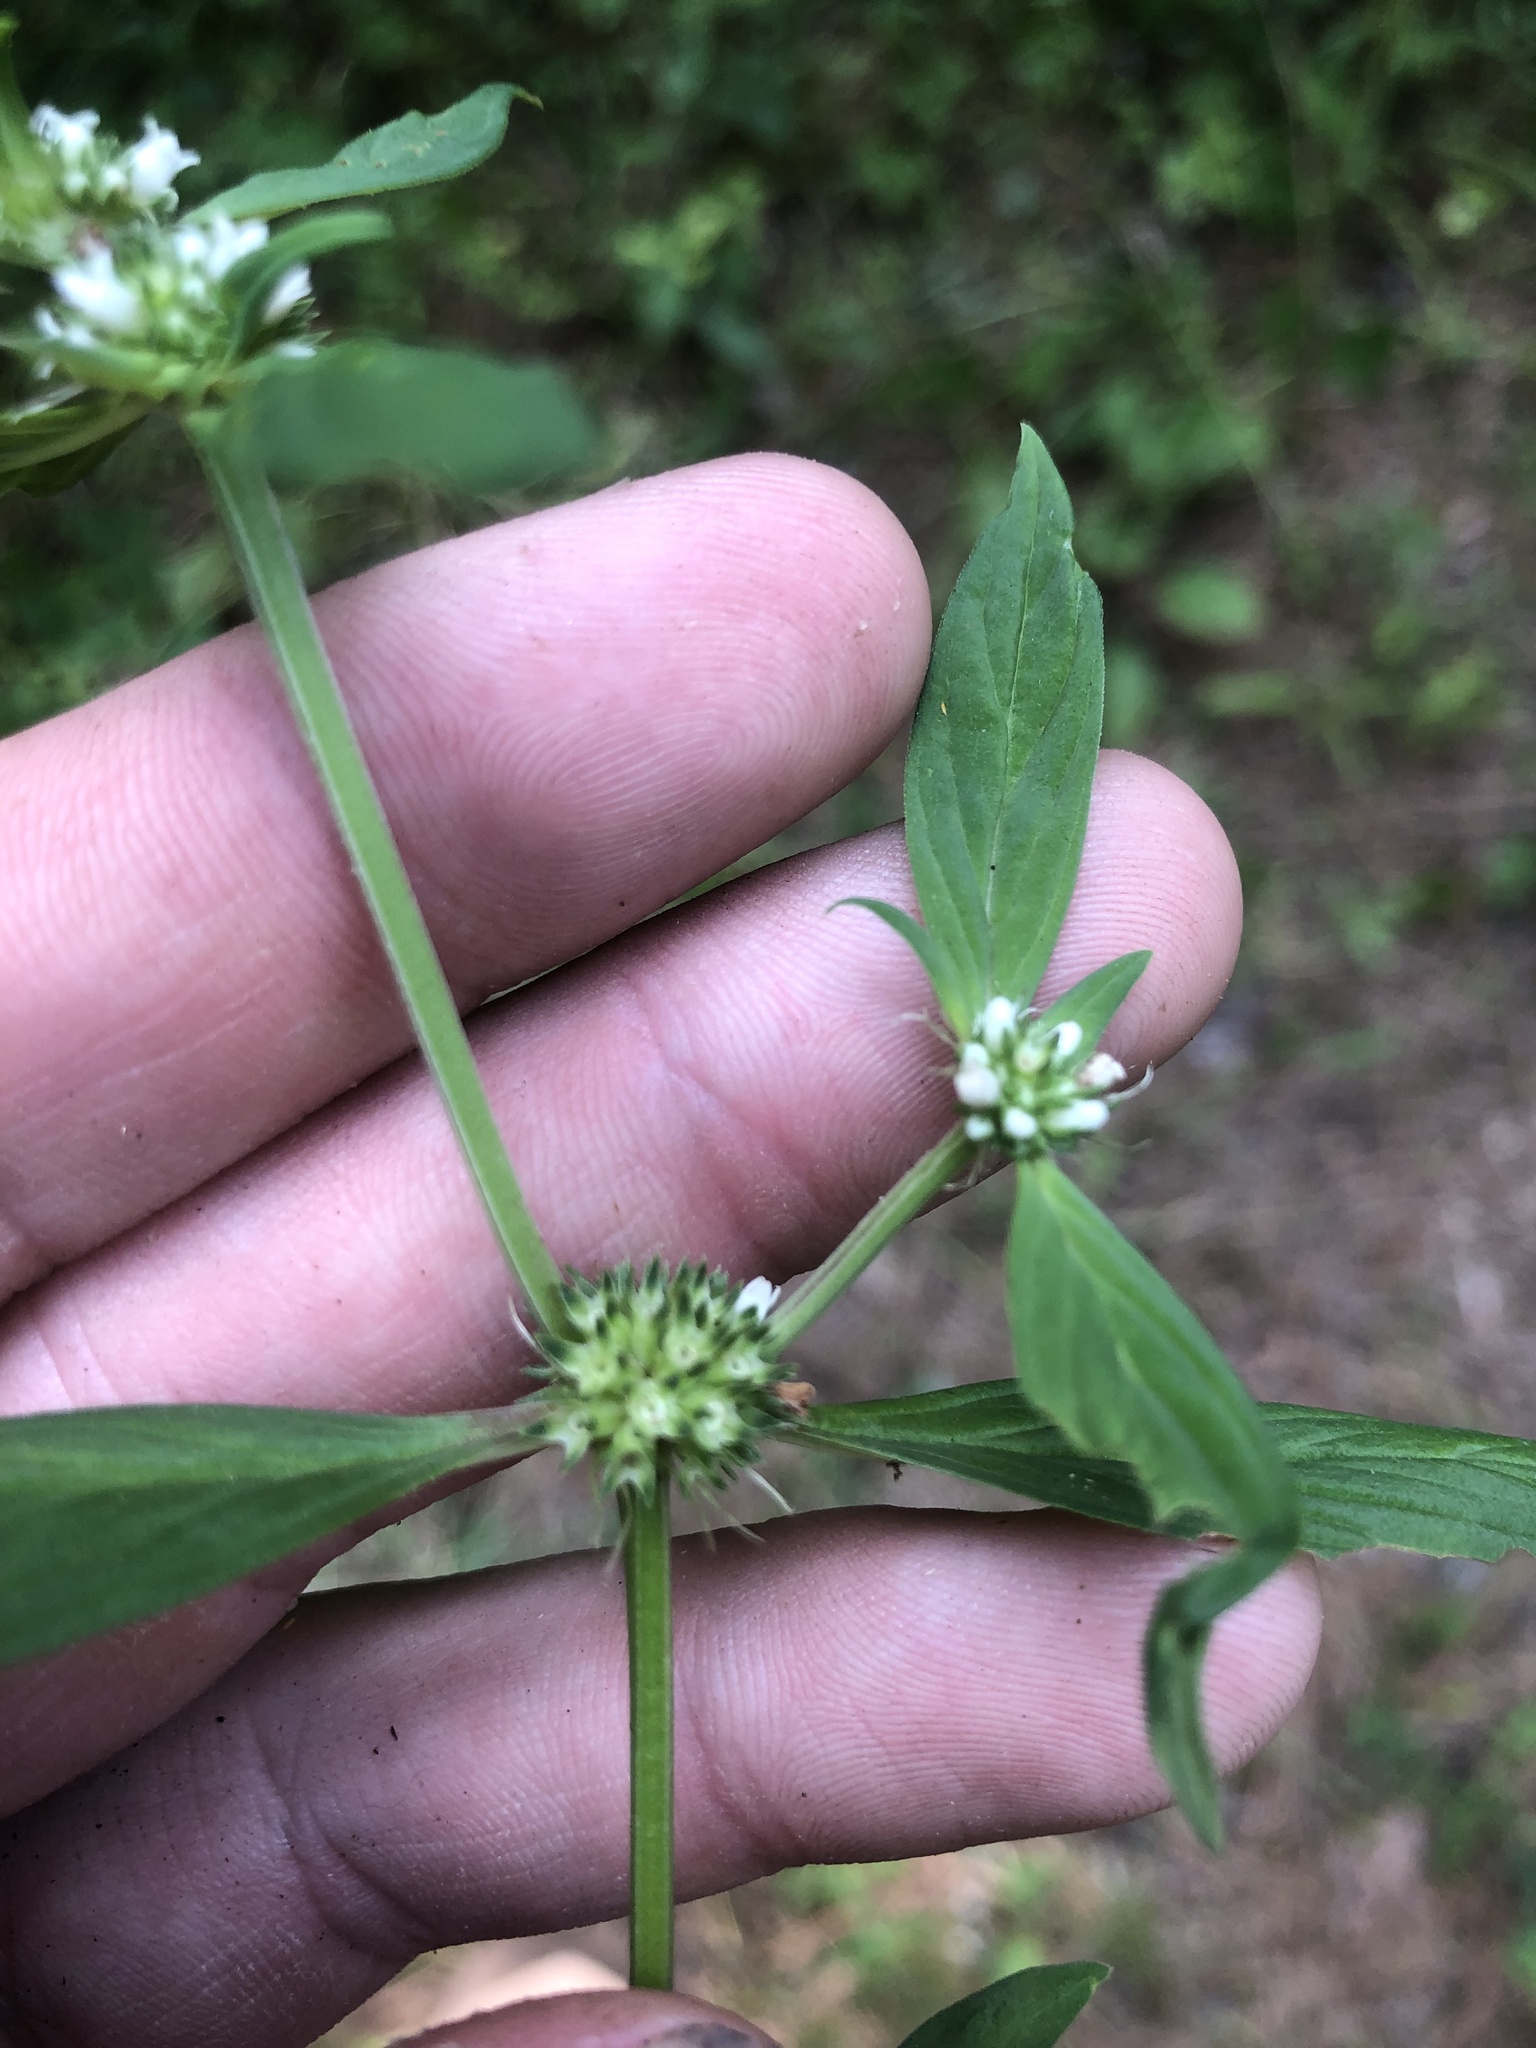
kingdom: Plantae
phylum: Tracheophyta
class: Magnoliopsida
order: Gentianales
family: Rubiaceae
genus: Spermacoce
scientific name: Spermacoce glabra
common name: Smooth buttonweed
